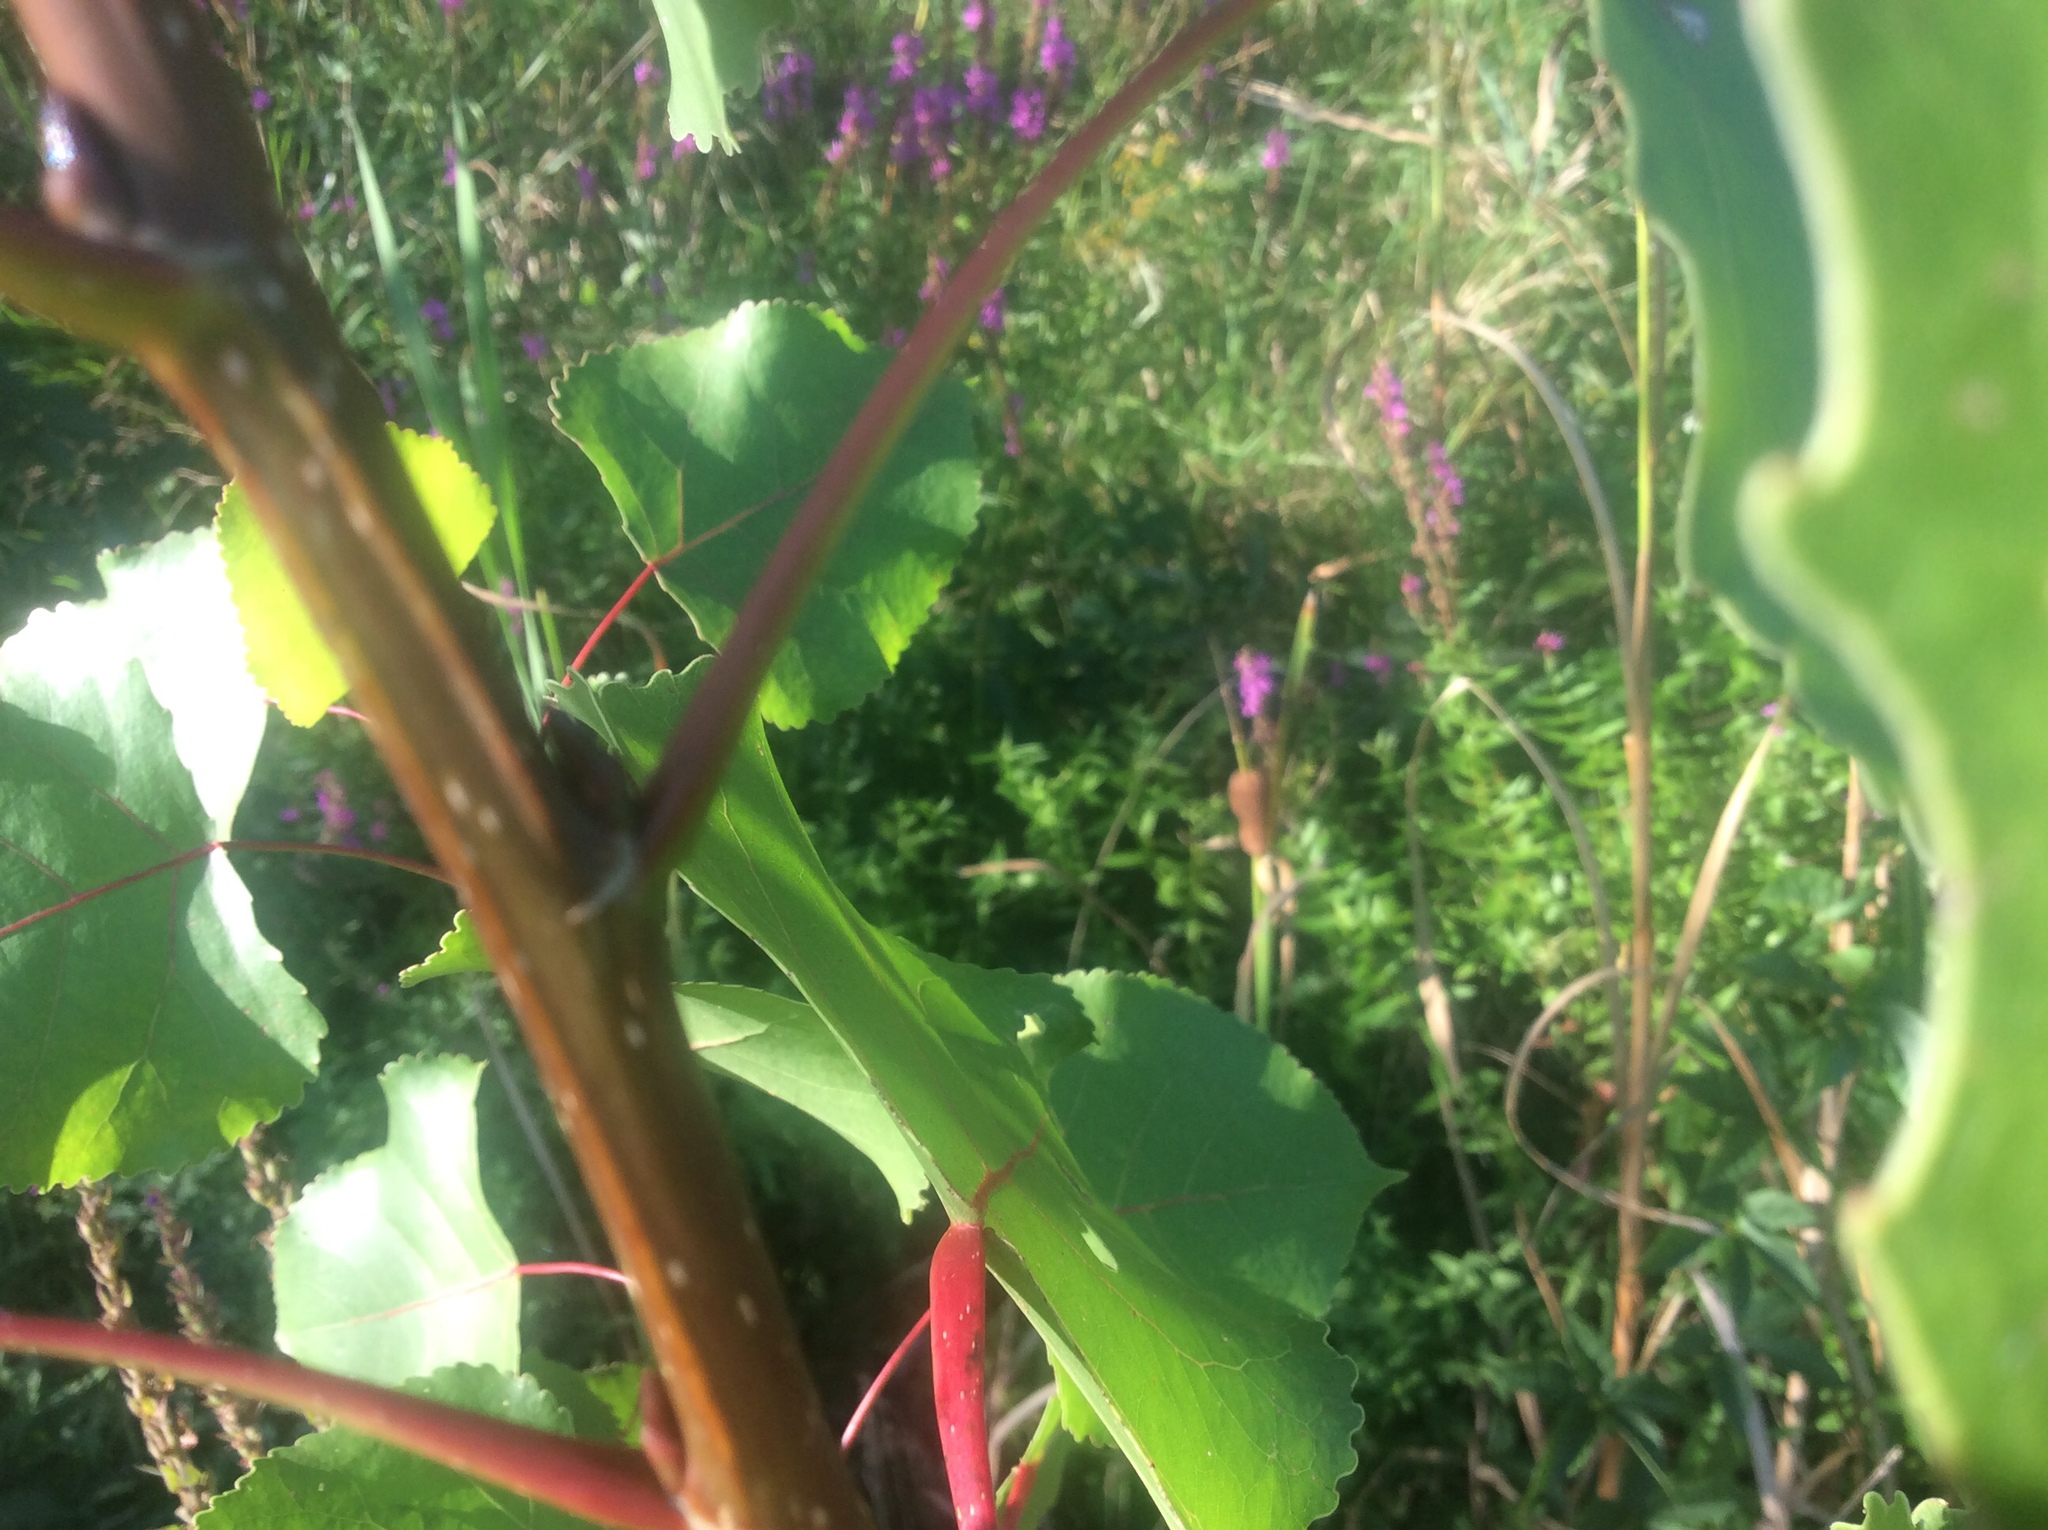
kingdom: Plantae
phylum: Tracheophyta
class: Magnoliopsida
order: Malpighiales
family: Salicaceae
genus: Populus
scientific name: Populus deltoides
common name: Eastern cottonwood
